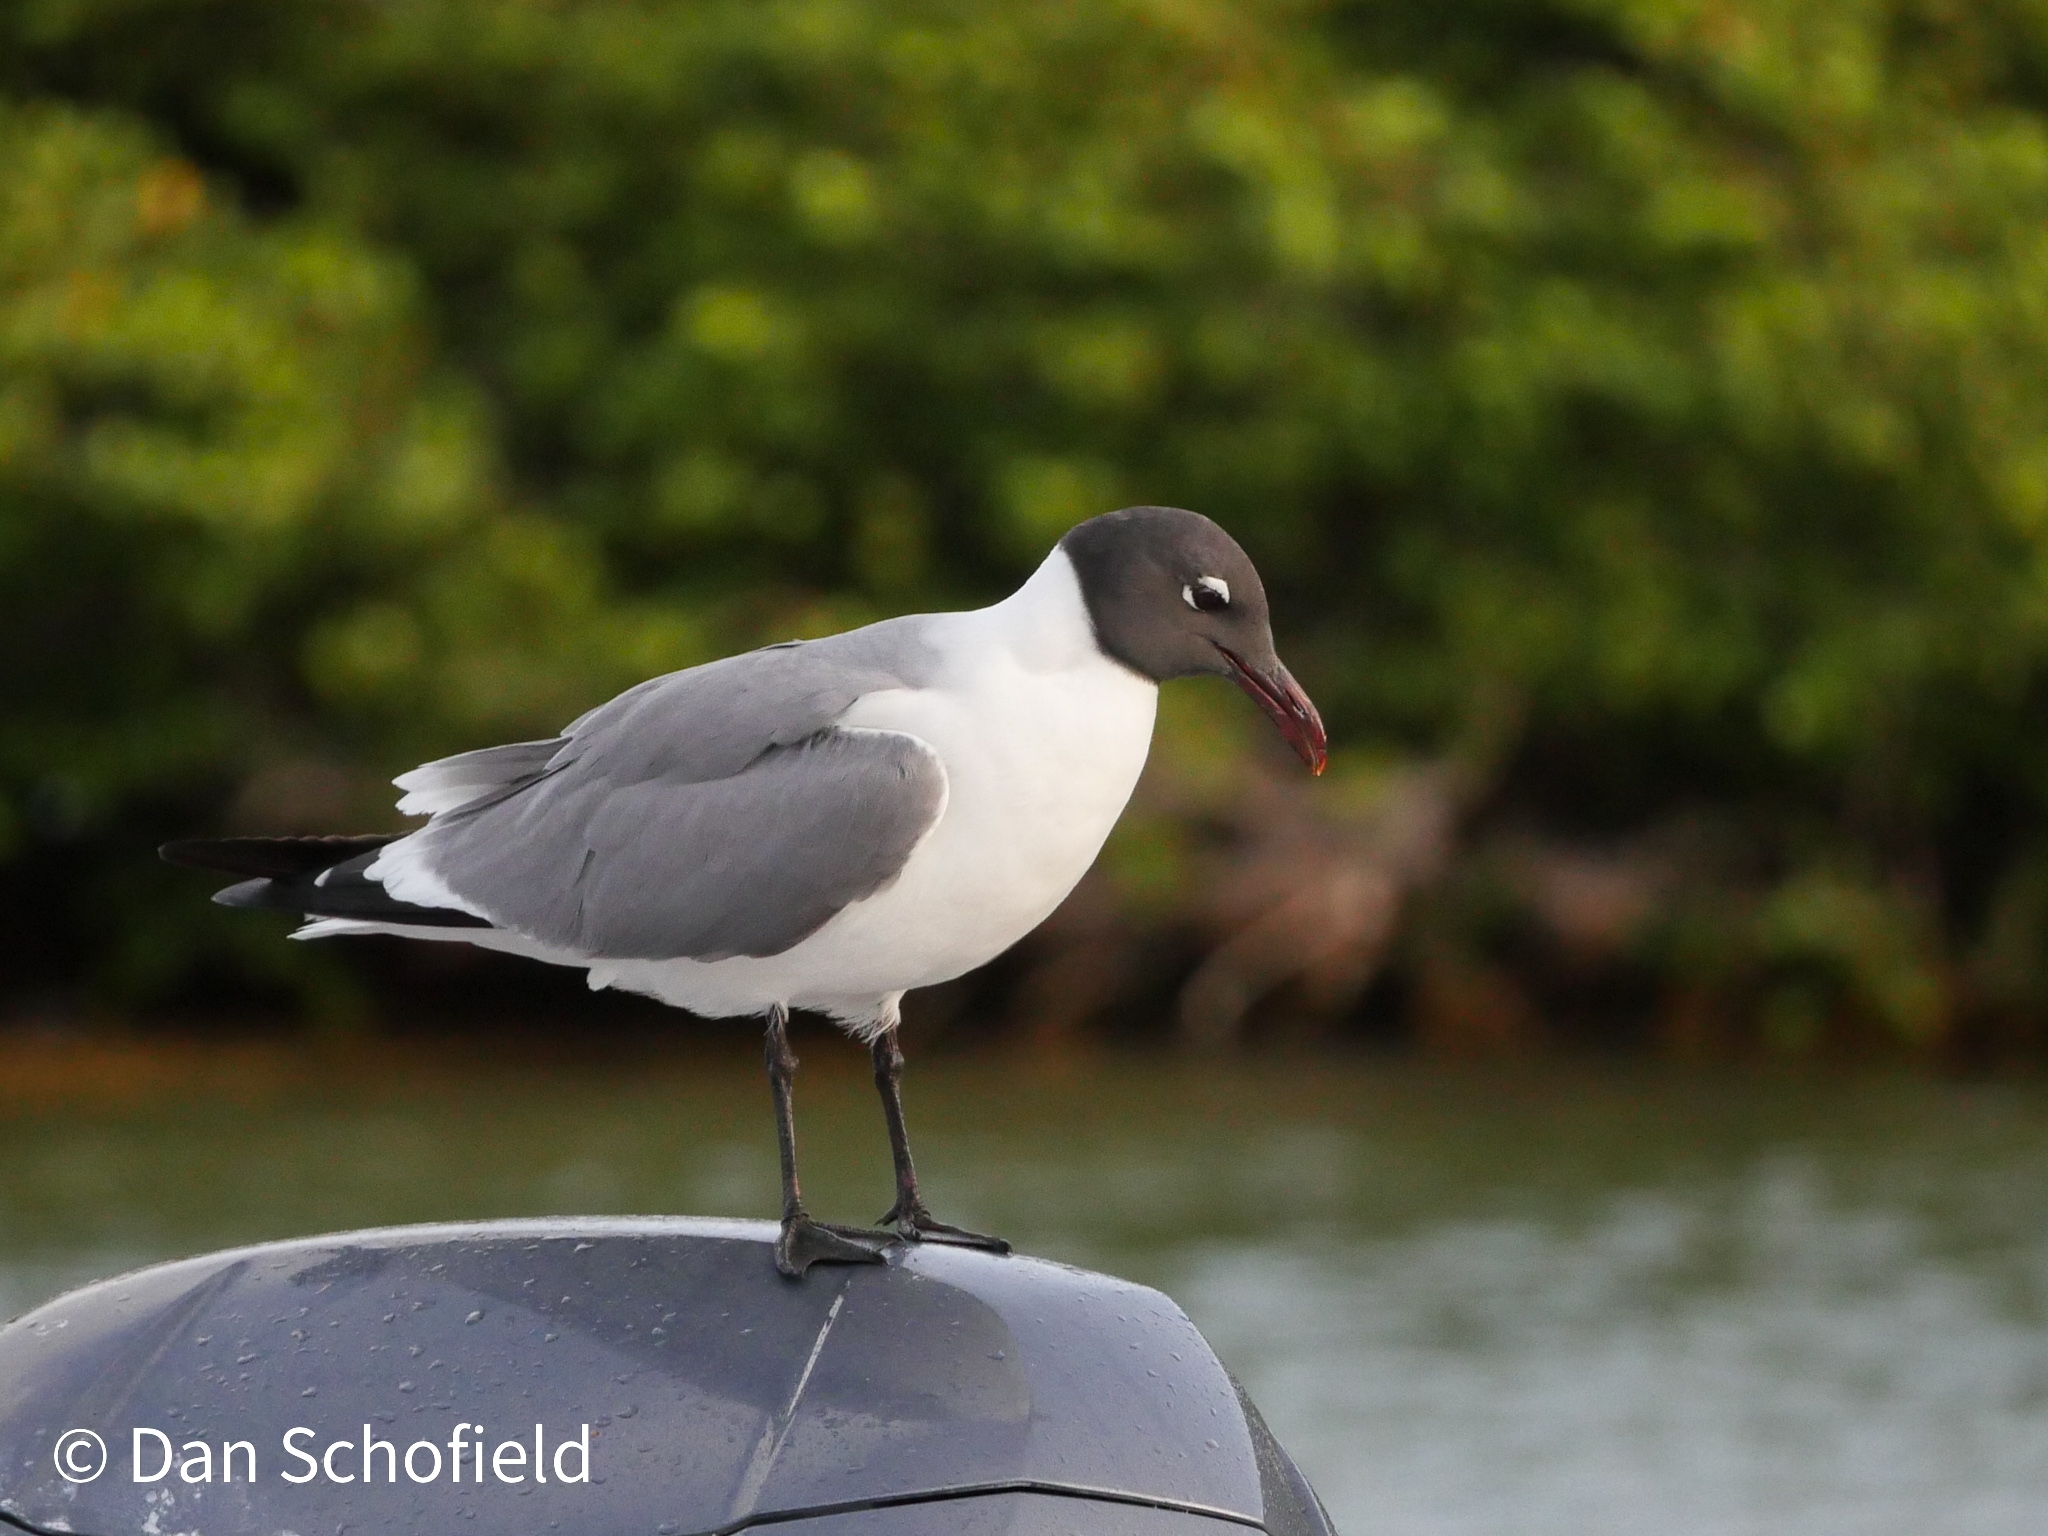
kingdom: Animalia
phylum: Chordata
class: Aves
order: Charadriiformes
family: Laridae
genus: Leucophaeus
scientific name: Leucophaeus atricilla
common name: Laughing gull
